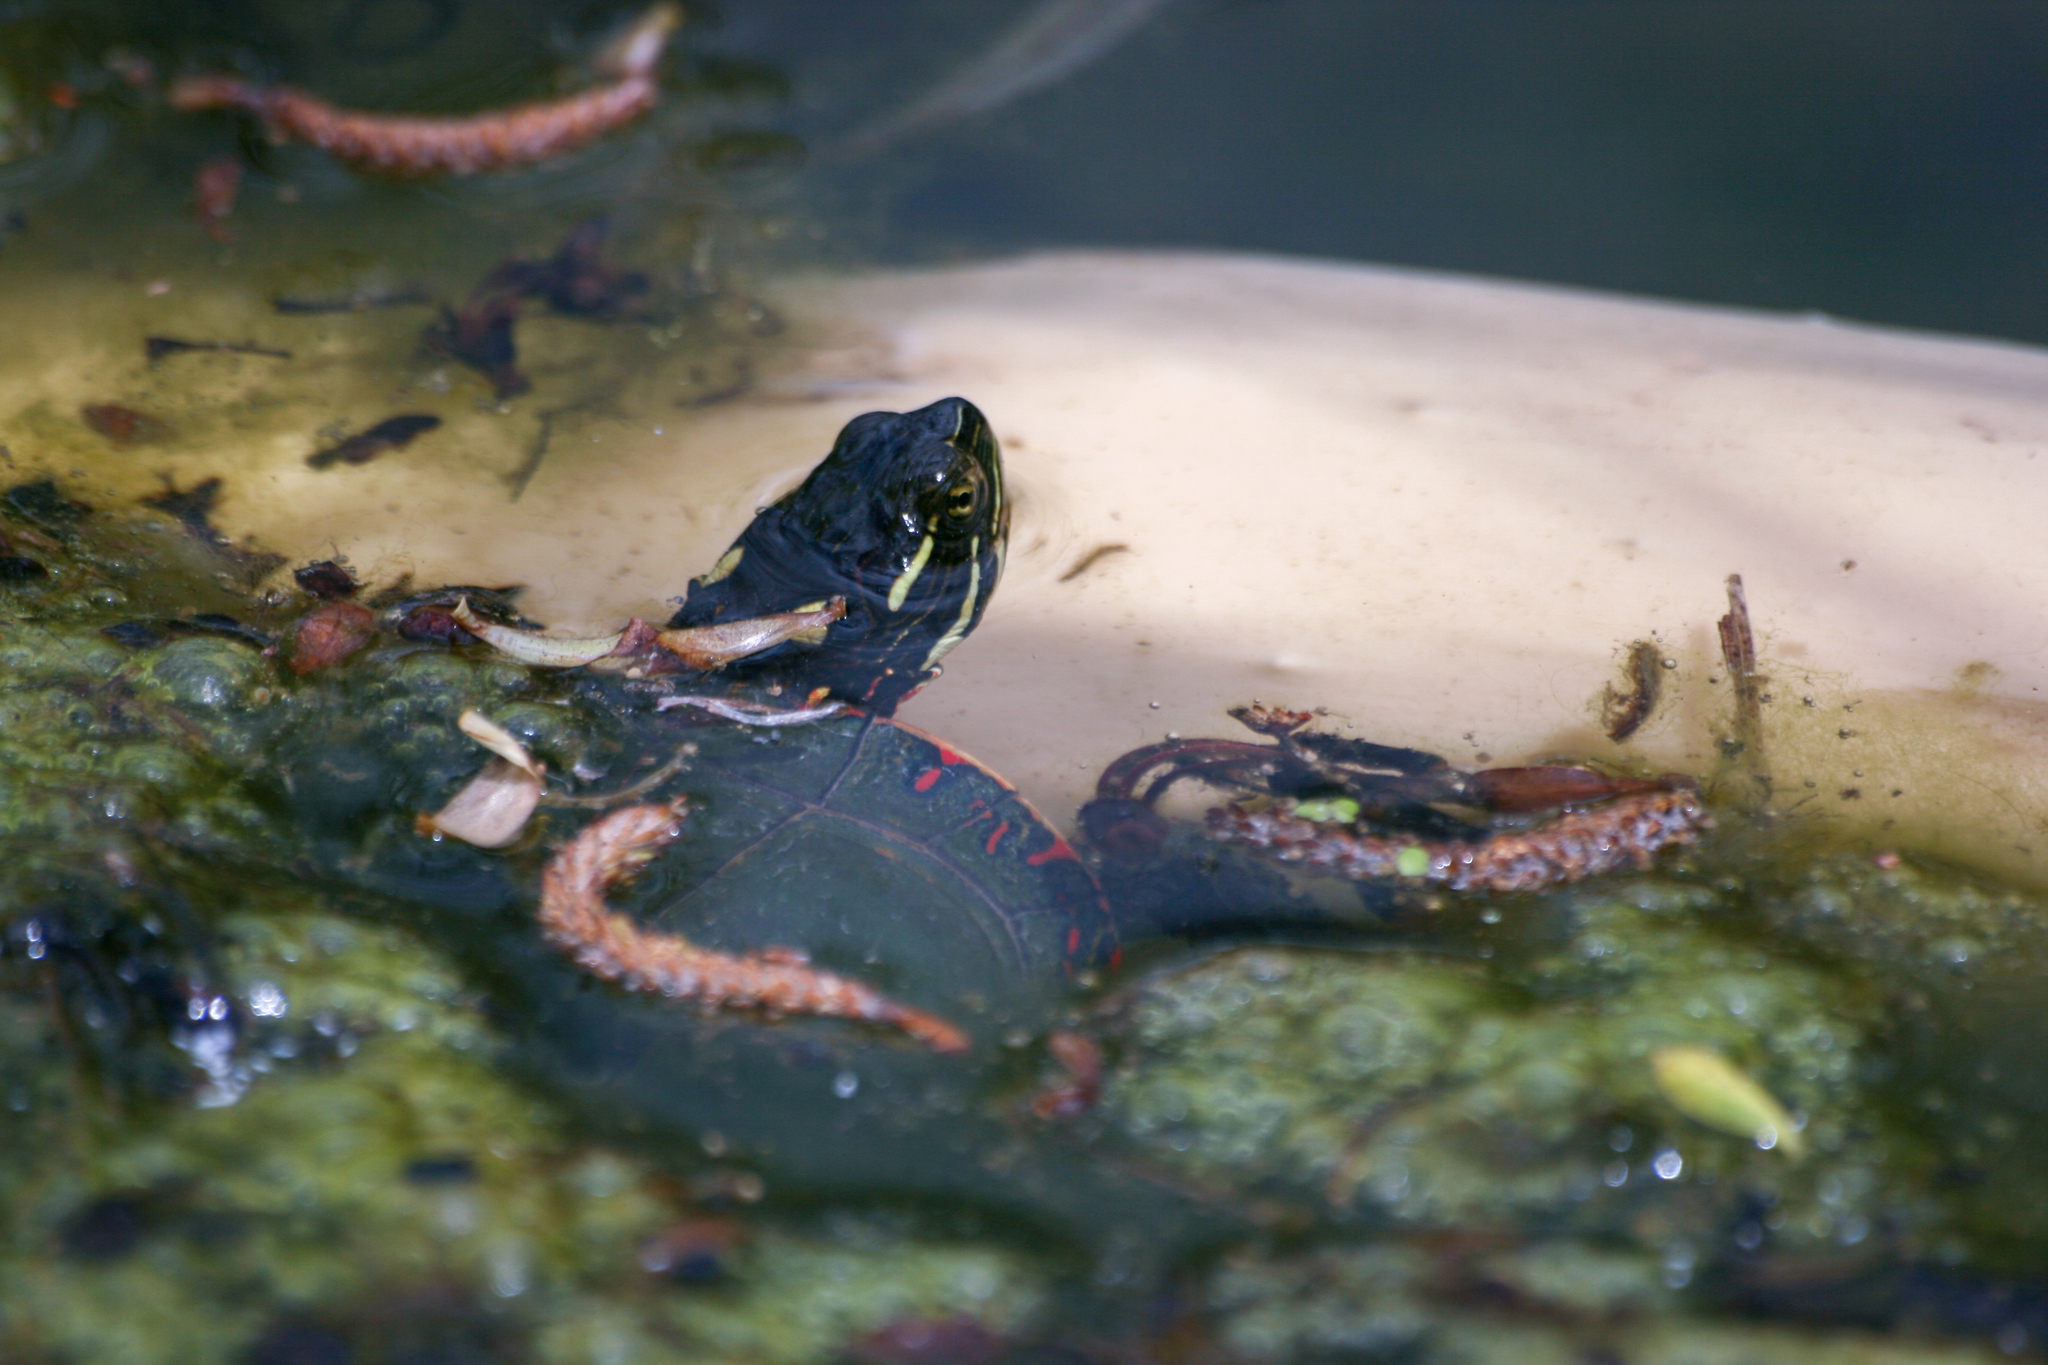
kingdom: Animalia
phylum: Chordata
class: Testudines
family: Emydidae
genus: Chrysemys
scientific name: Chrysemys picta
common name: Painted turtle
